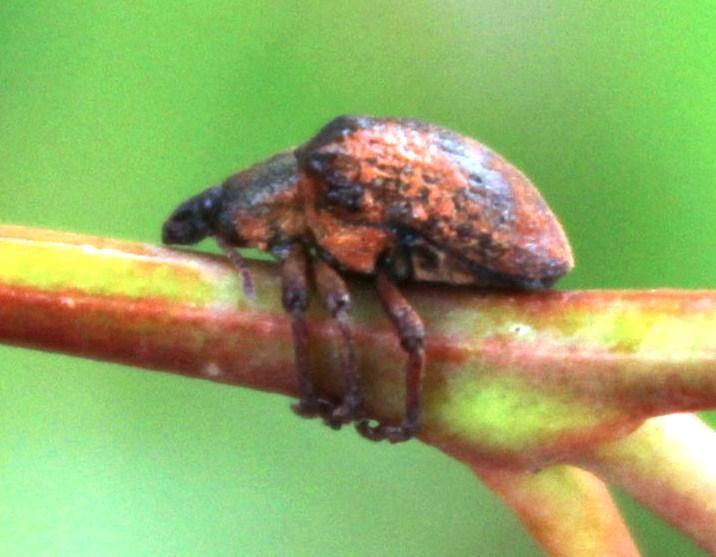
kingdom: Animalia
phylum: Arthropoda
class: Insecta
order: Coleoptera
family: Curculionidae
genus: Gonipterus
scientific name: Gonipterus
